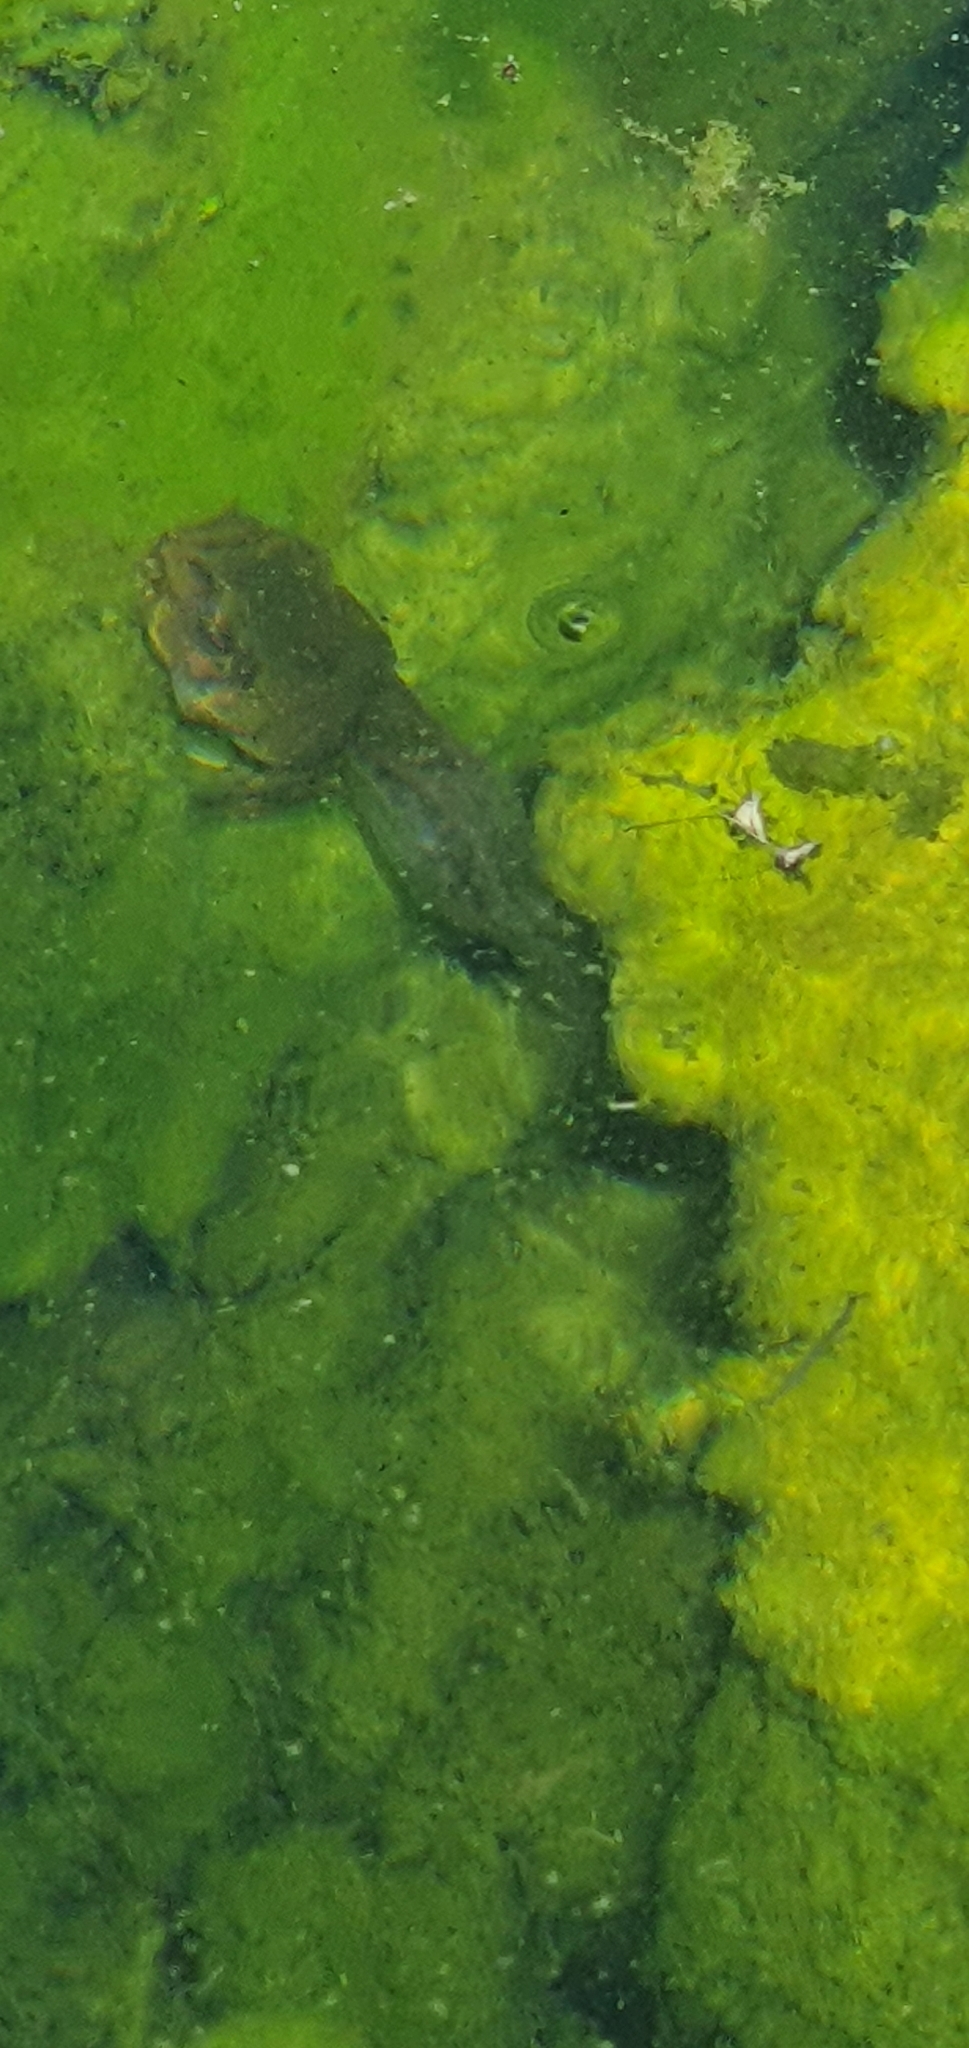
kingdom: Animalia
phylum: Chordata
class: Amphibia
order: Anura
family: Pelodryadidae
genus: Ranoidea
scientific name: Ranoidea caerulea
